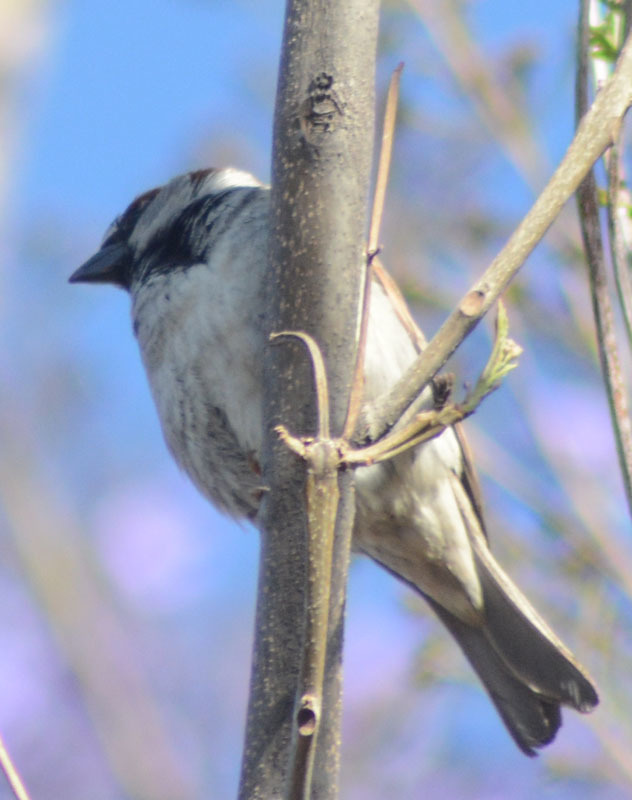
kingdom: Animalia
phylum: Chordata
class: Aves
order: Passeriformes
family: Passeridae
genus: Passer
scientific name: Passer domesticus
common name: House sparrow
